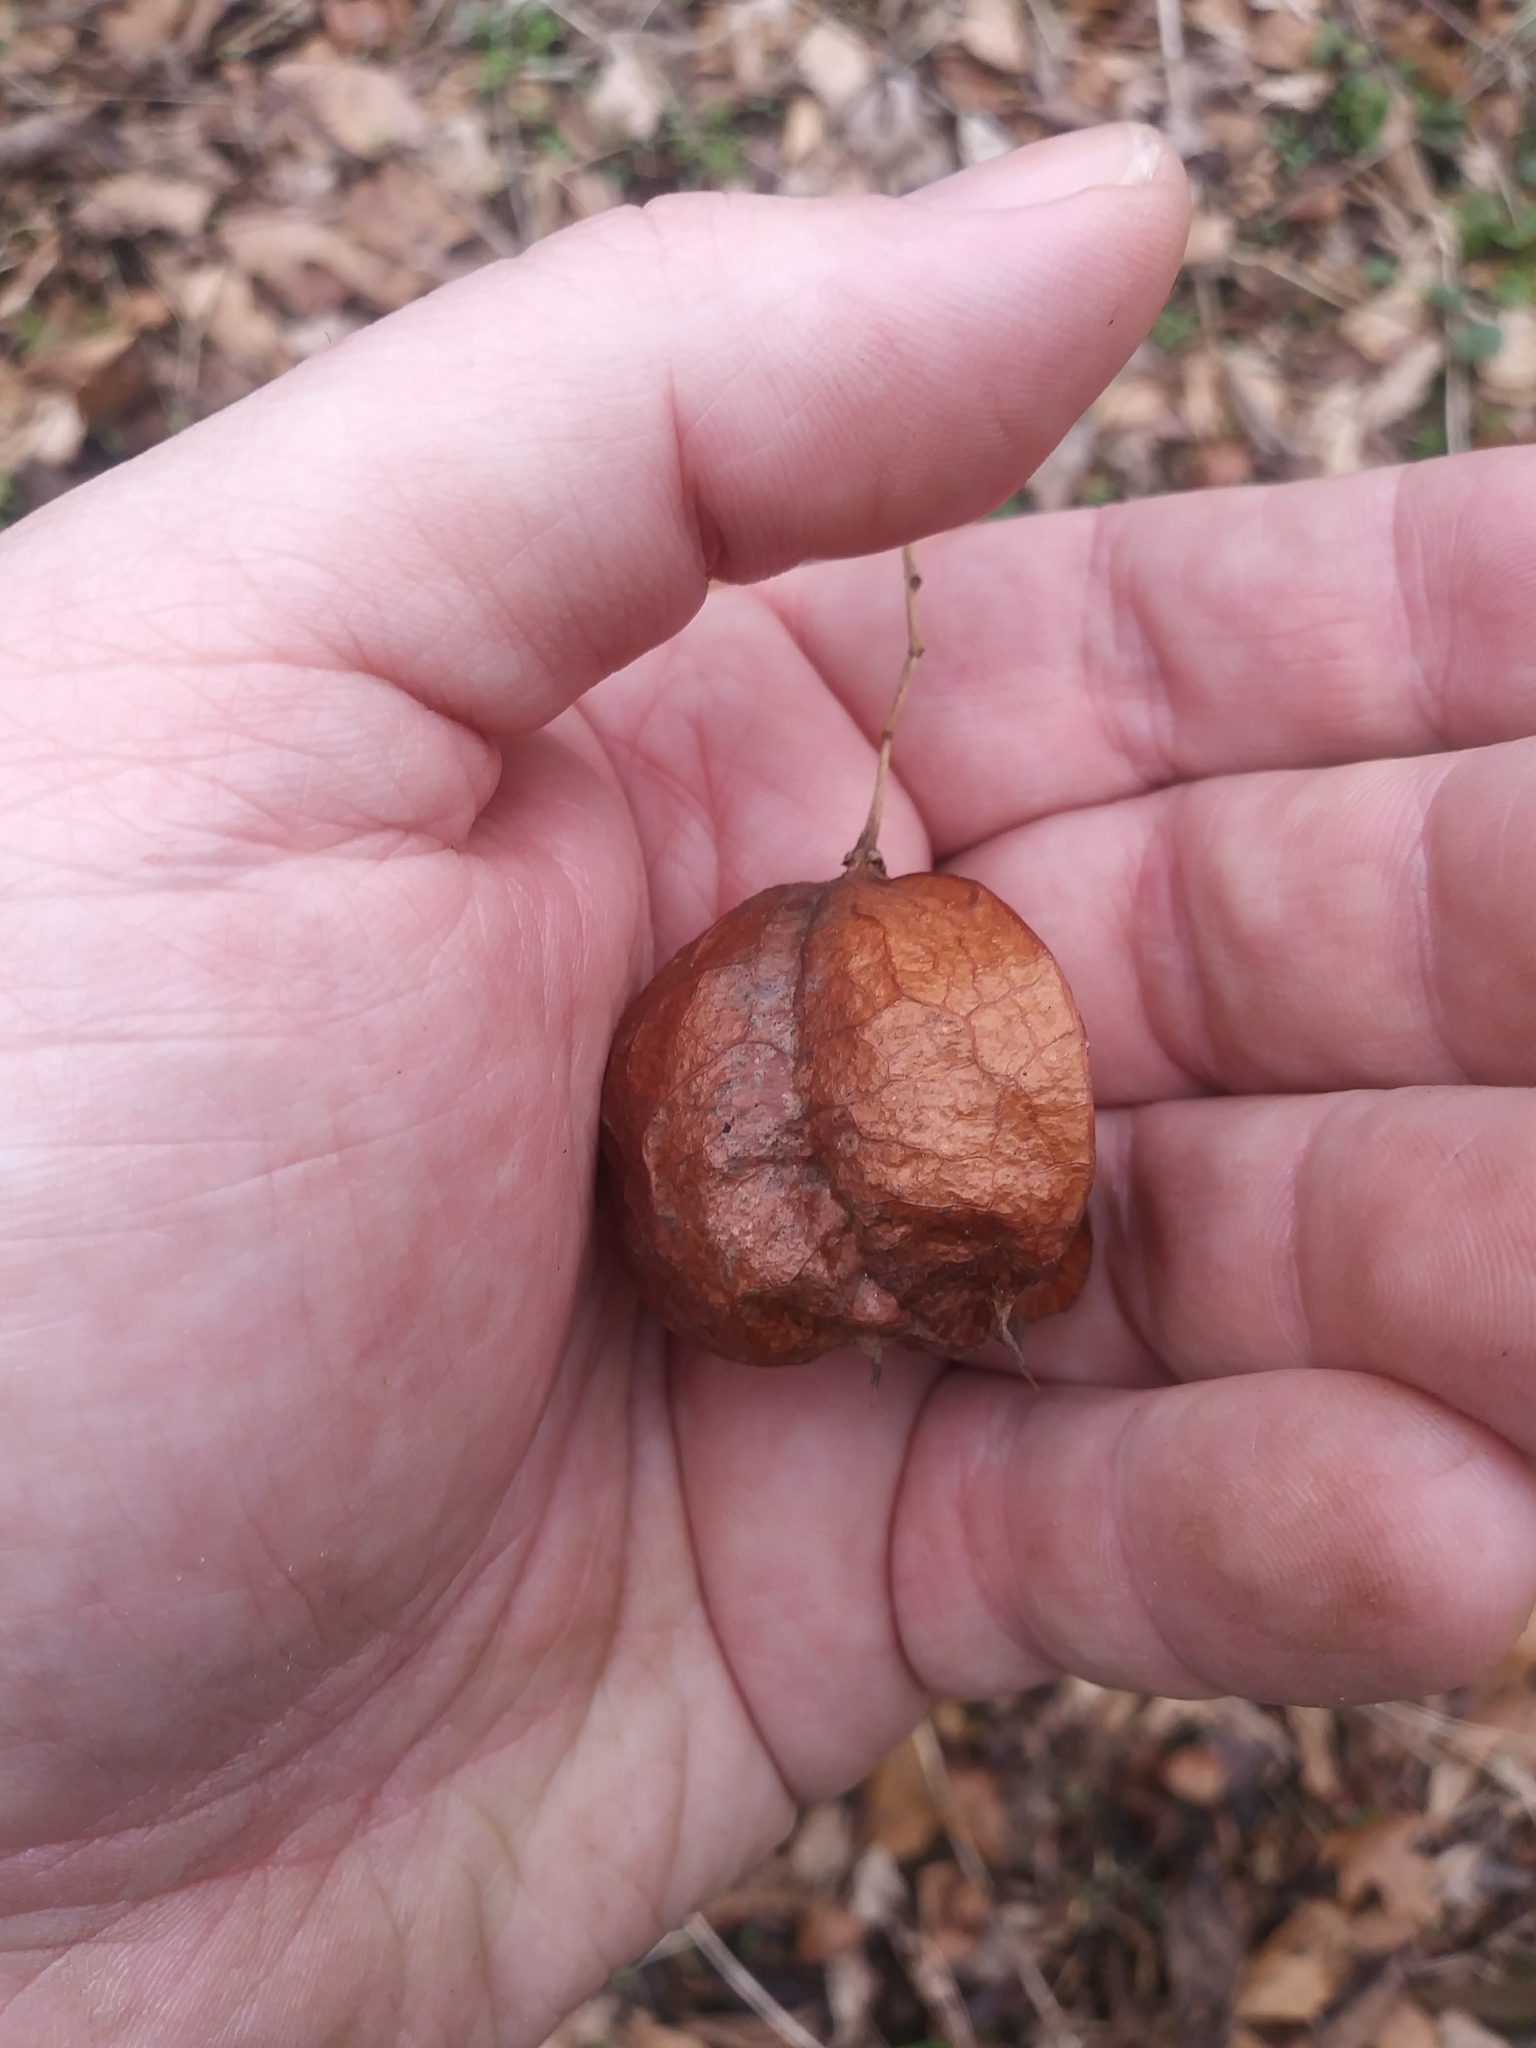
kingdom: Plantae
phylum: Tracheophyta
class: Magnoliopsida
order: Crossosomatales
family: Staphyleaceae
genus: Staphylea
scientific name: Staphylea trifolia
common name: American bladdernut
